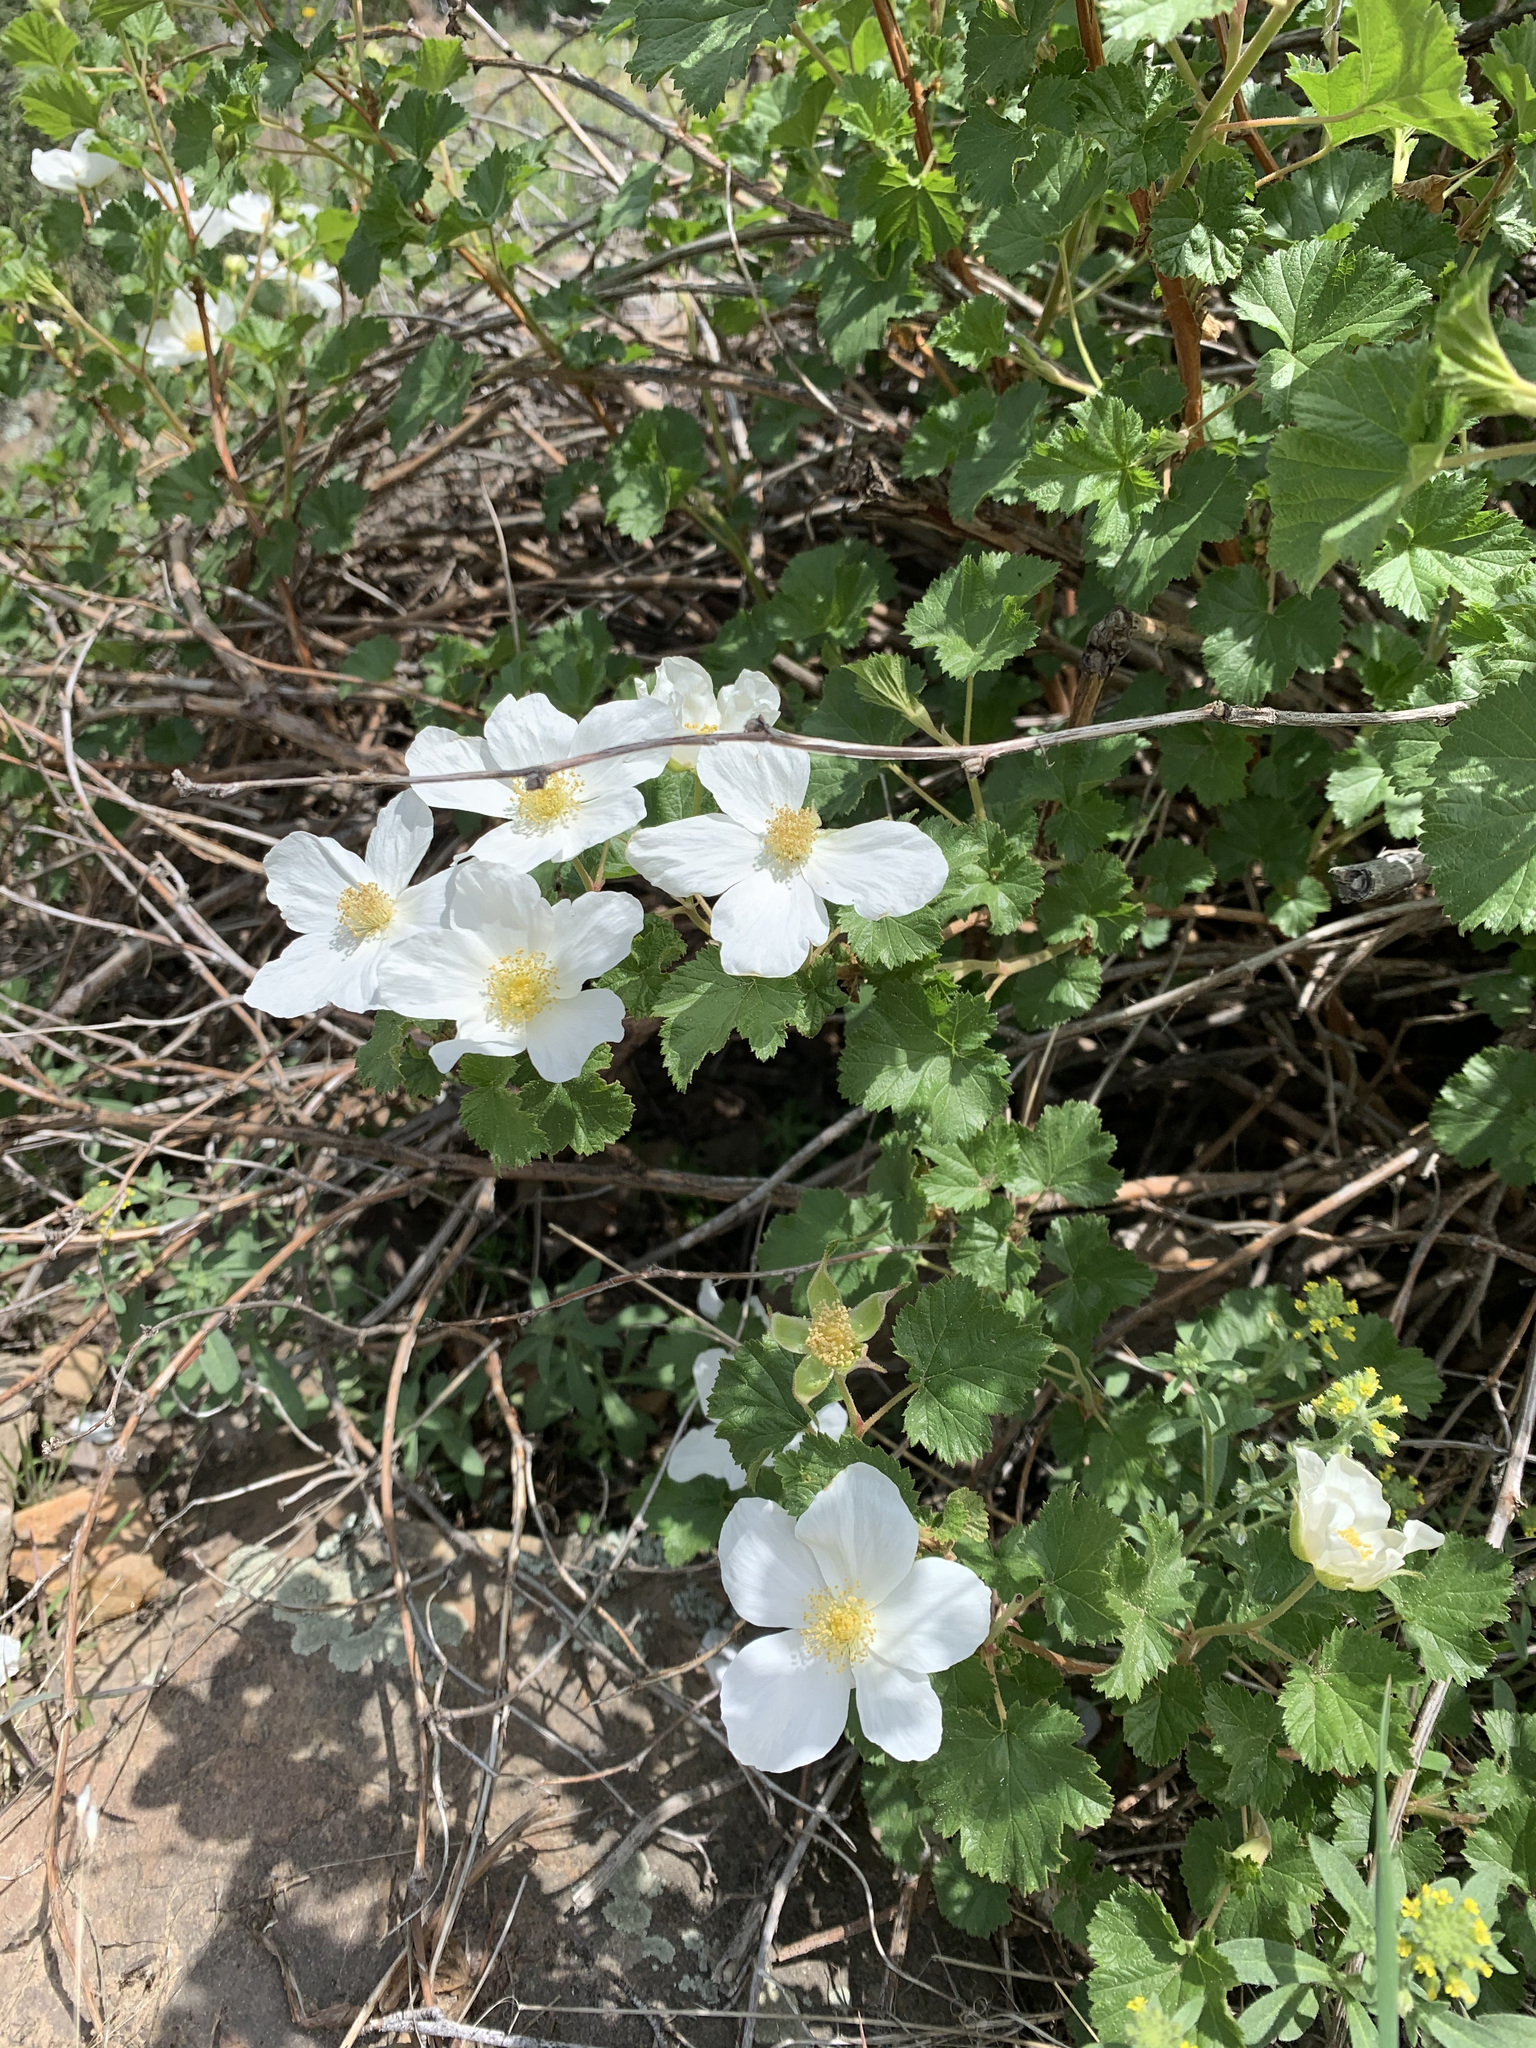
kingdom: Plantae
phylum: Tracheophyta
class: Magnoliopsida
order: Rosales
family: Rosaceae
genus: Rubus
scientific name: Rubus deliciosus
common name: Rocky mountain raspberry
